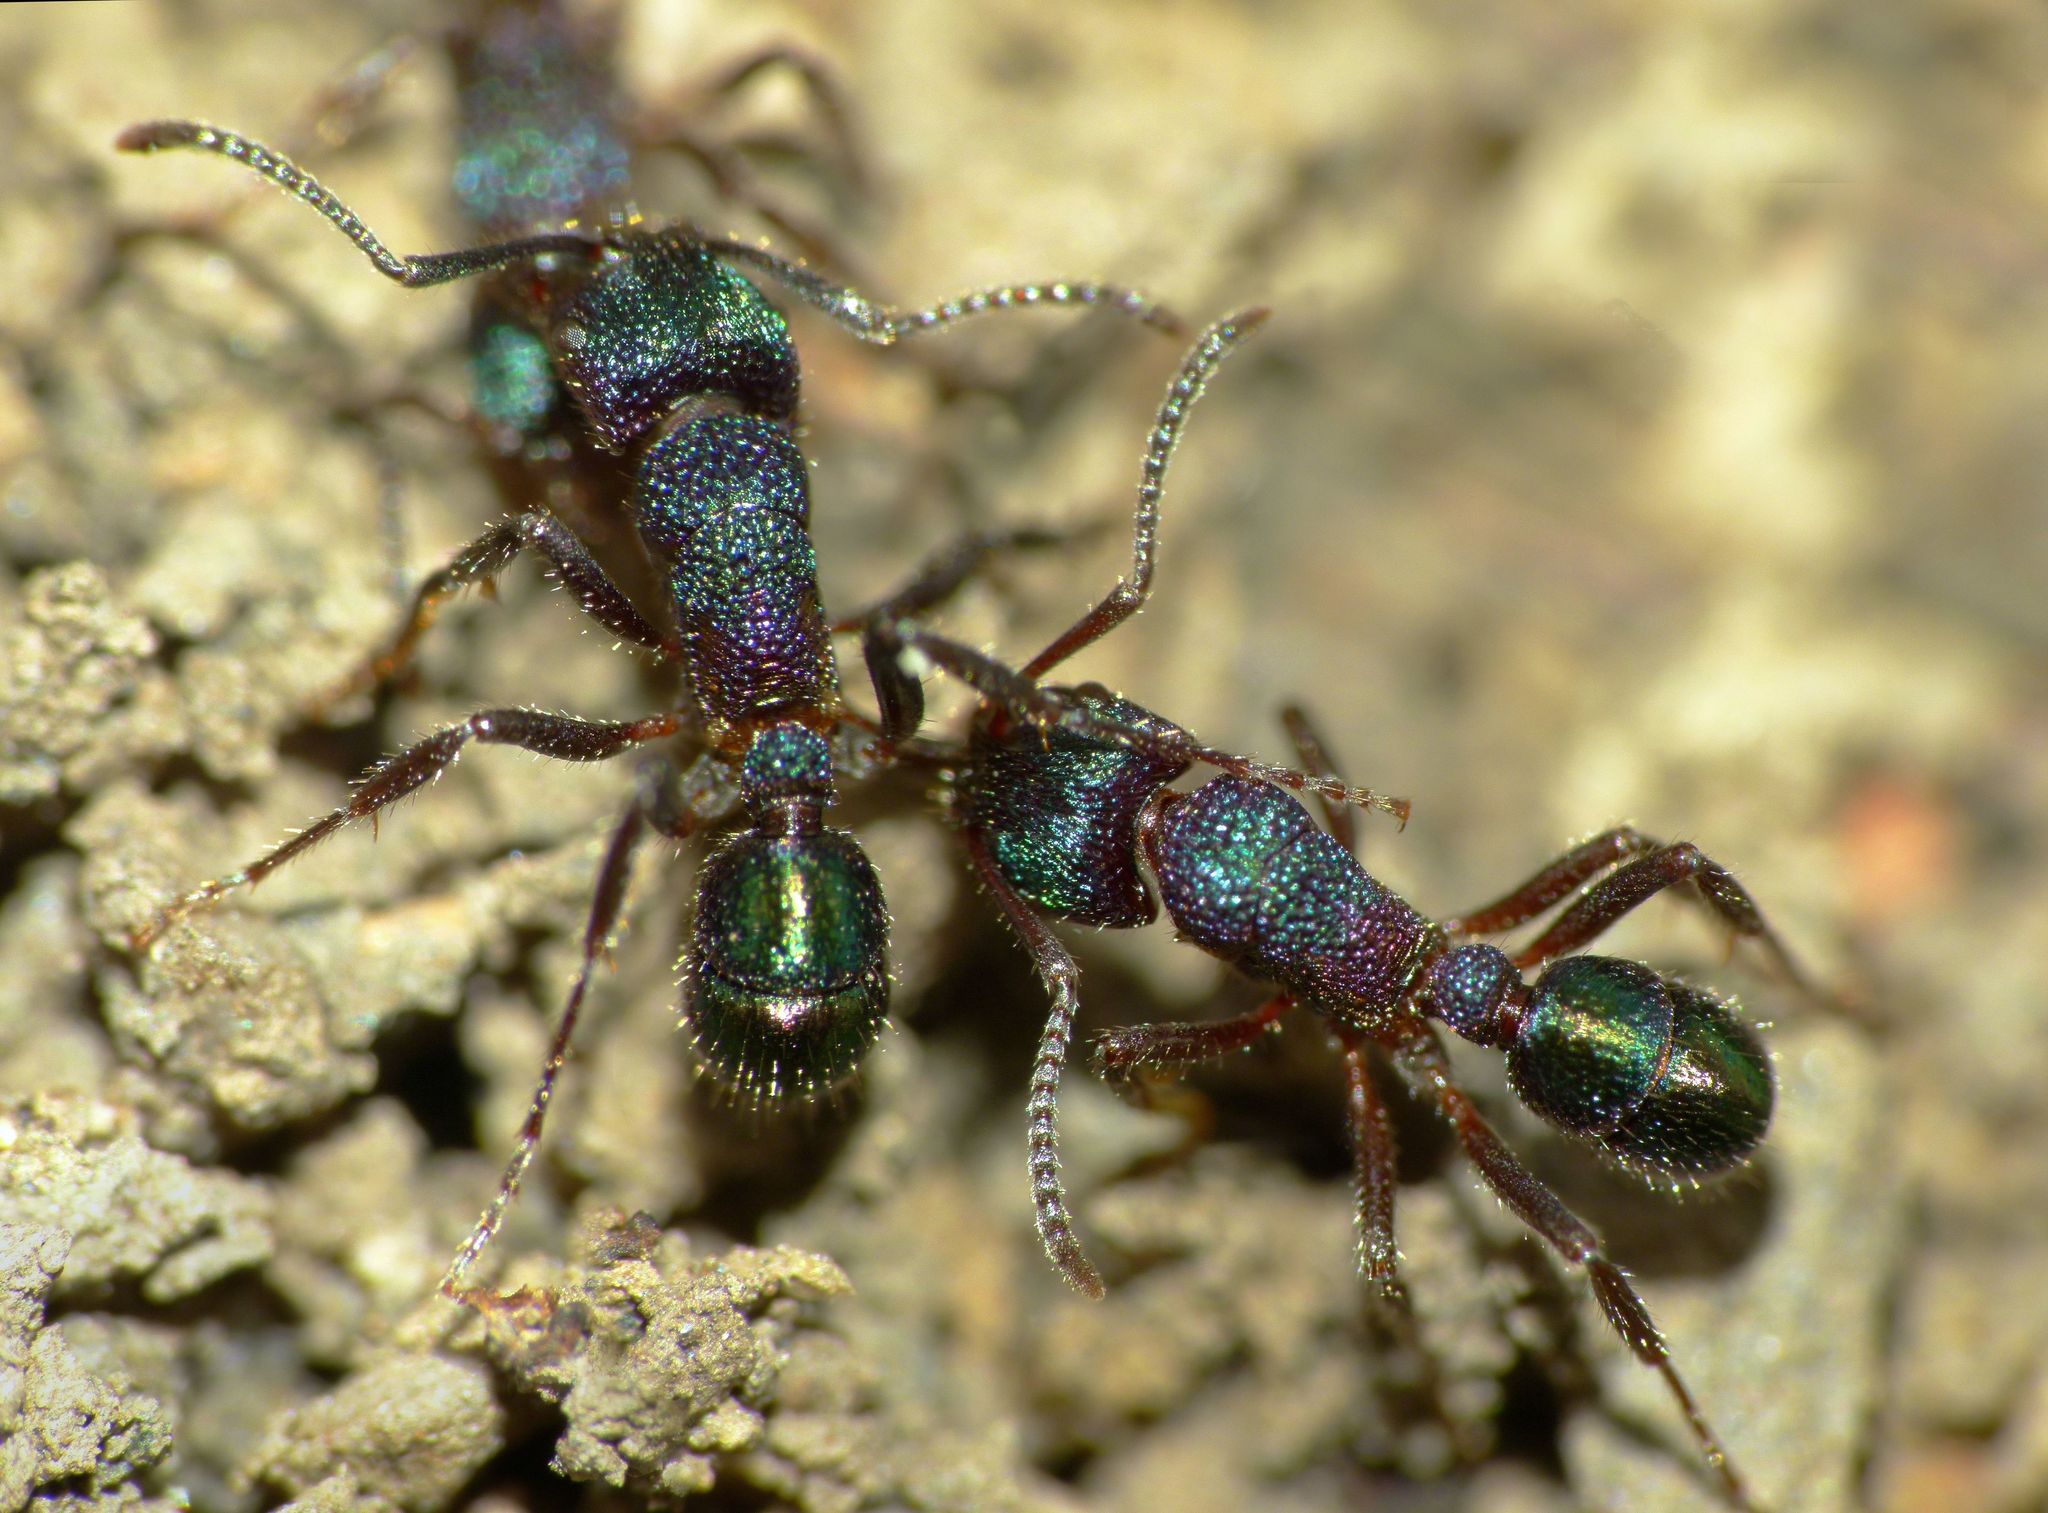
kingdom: Animalia
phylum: Arthropoda
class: Insecta
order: Hymenoptera
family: Formicidae
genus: Rhytidoponera
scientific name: Rhytidoponera metallica
